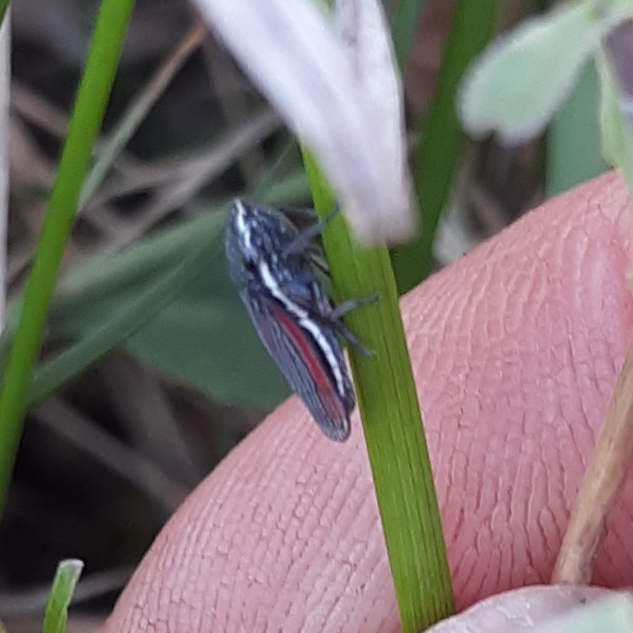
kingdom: Animalia
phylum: Arthropoda
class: Insecta
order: Hemiptera
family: Cicadellidae
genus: Cuerna
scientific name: Cuerna striata
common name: Striped leafhopper
